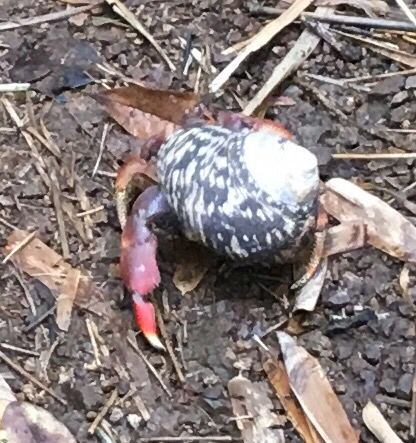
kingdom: Animalia
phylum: Arthropoda
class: Malacostraca
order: Decapoda
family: Coenobitidae
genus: Coenobita
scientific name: Coenobita clypeatus
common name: Caribbean hermit crab
